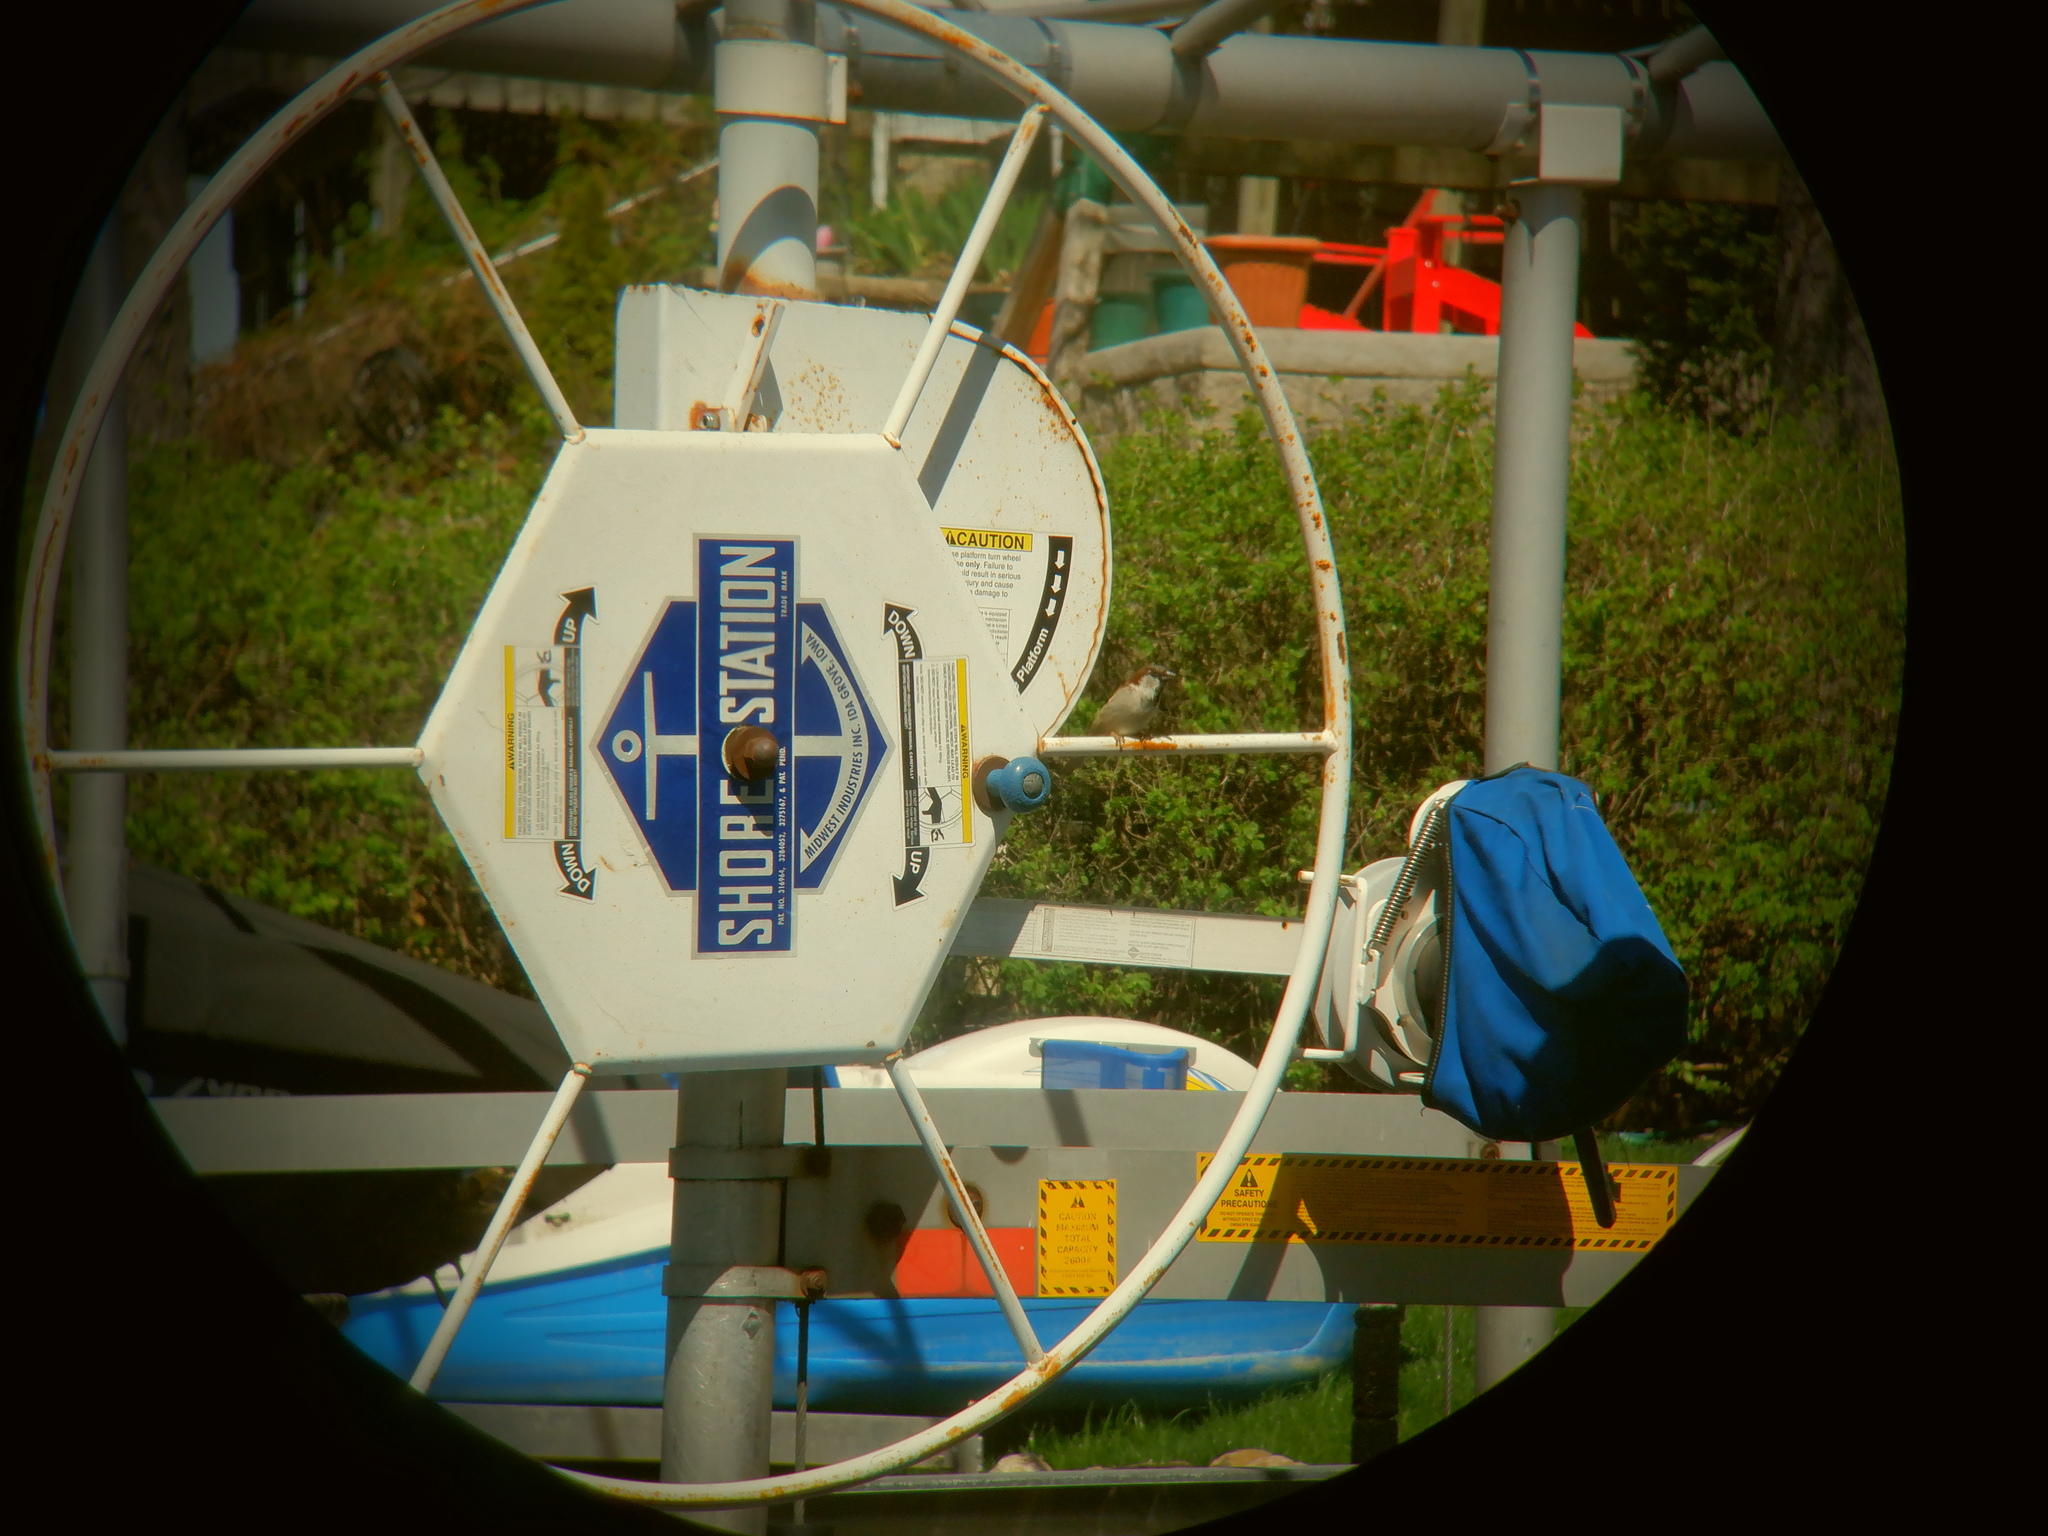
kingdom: Animalia
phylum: Chordata
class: Aves
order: Passeriformes
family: Passeridae
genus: Passer
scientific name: Passer domesticus
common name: House sparrow
